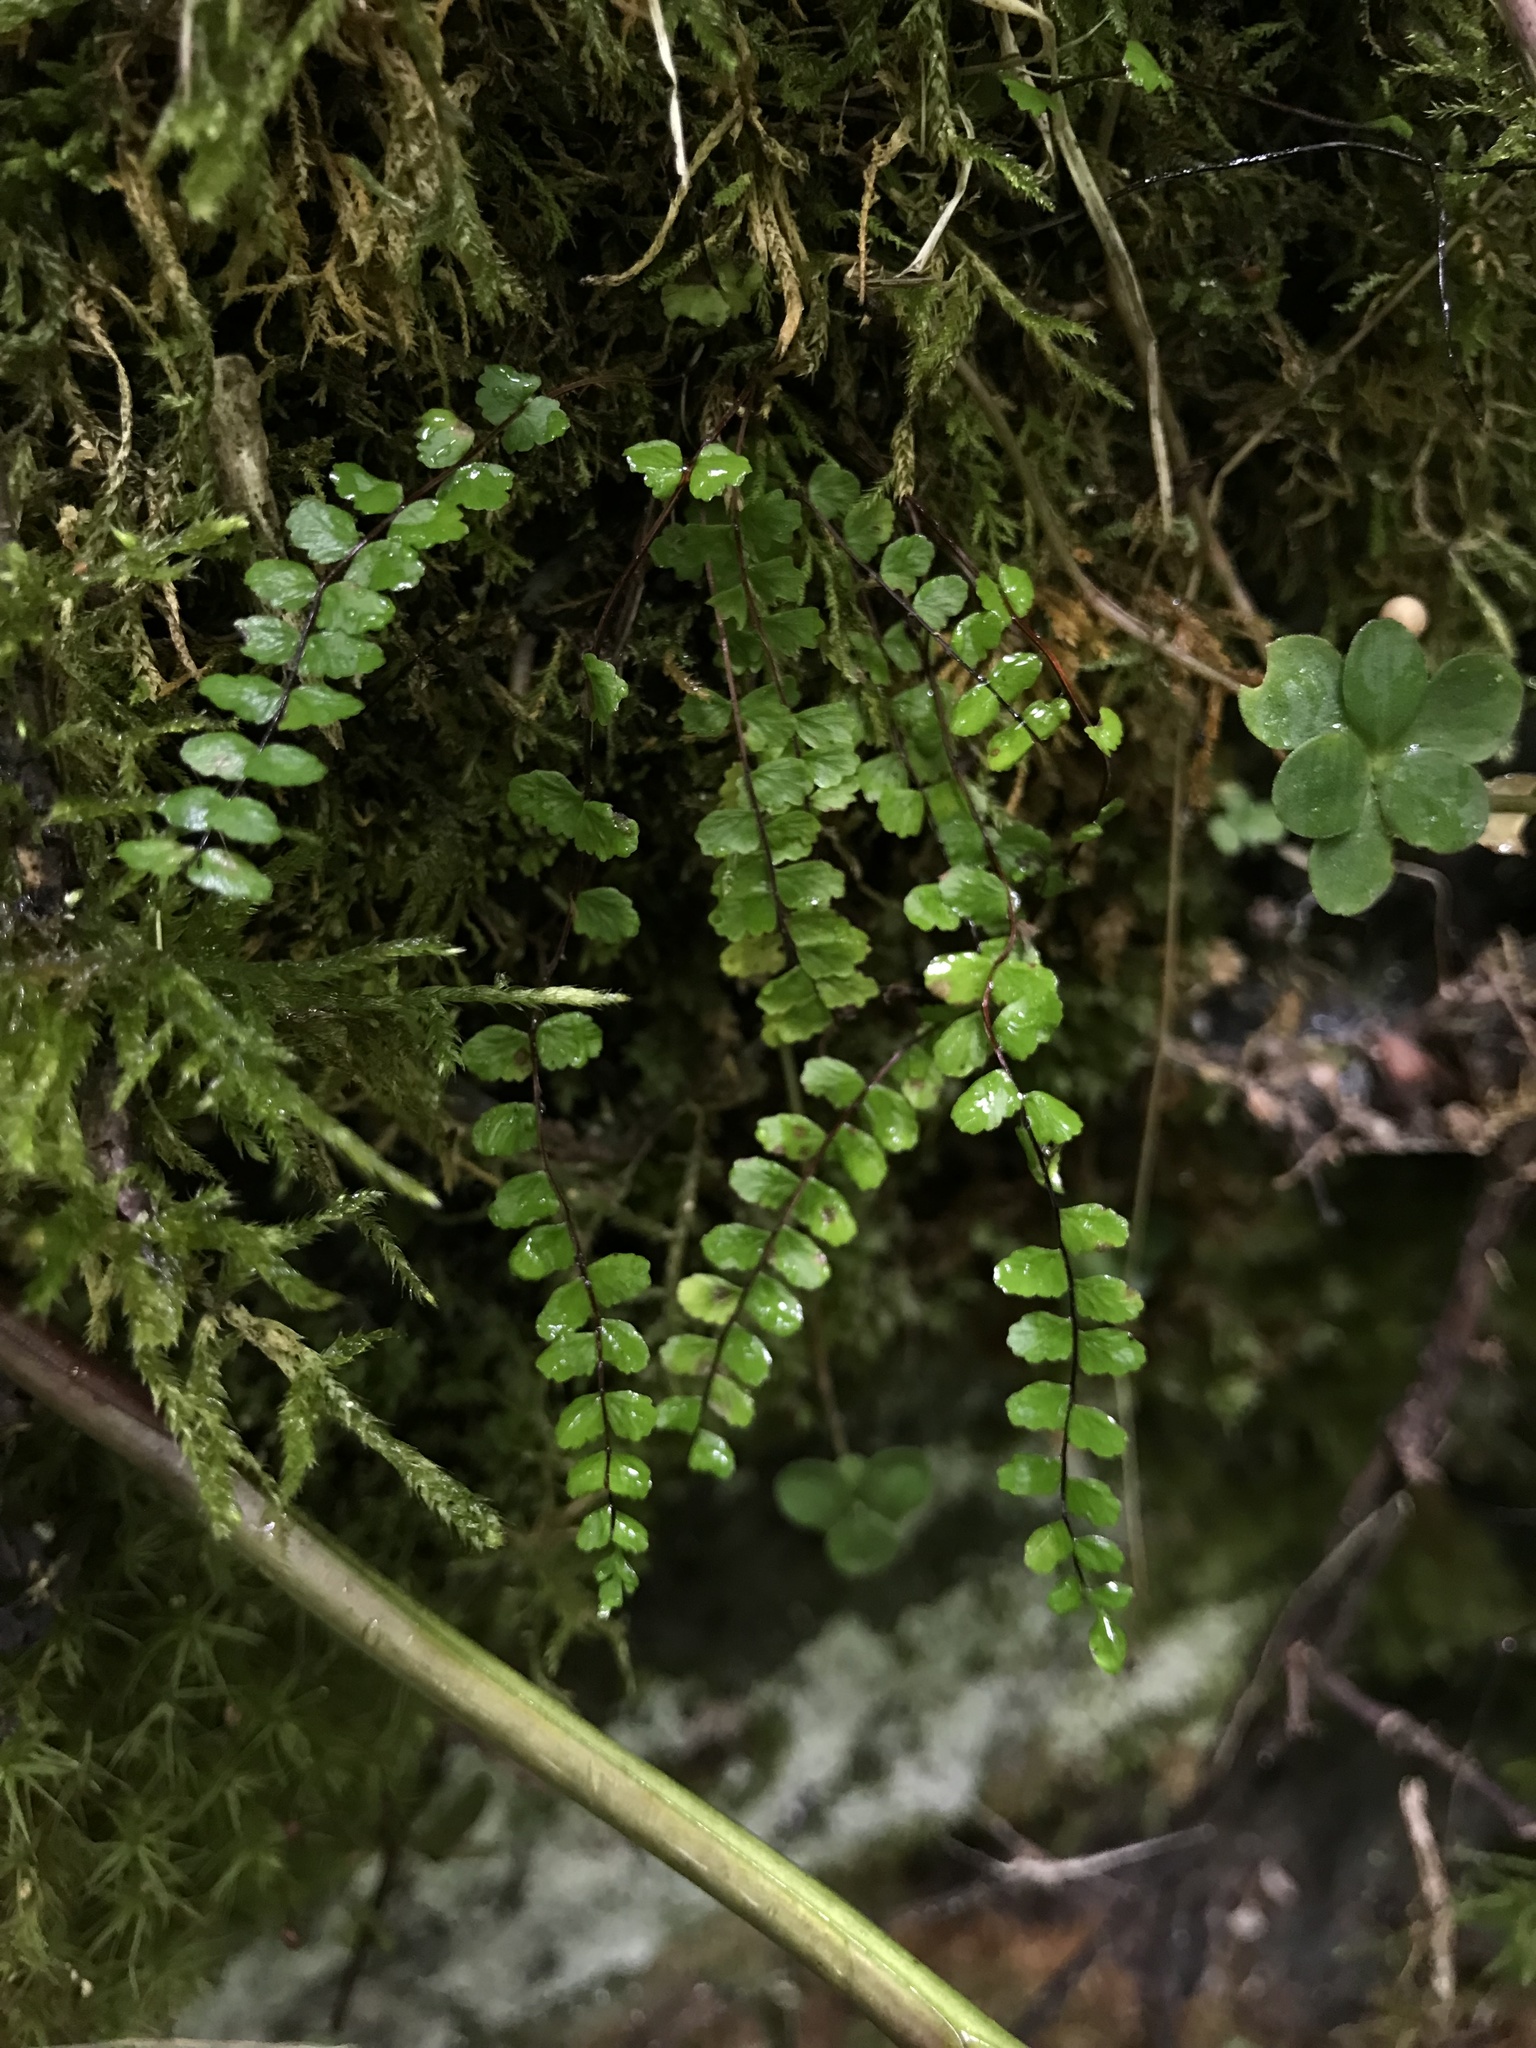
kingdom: Plantae
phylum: Tracheophyta
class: Polypodiopsida
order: Polypodiales
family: Aspleniaceae
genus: Asplenium
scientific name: Asplenium trichomanes
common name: Maidenhair spleenwort
